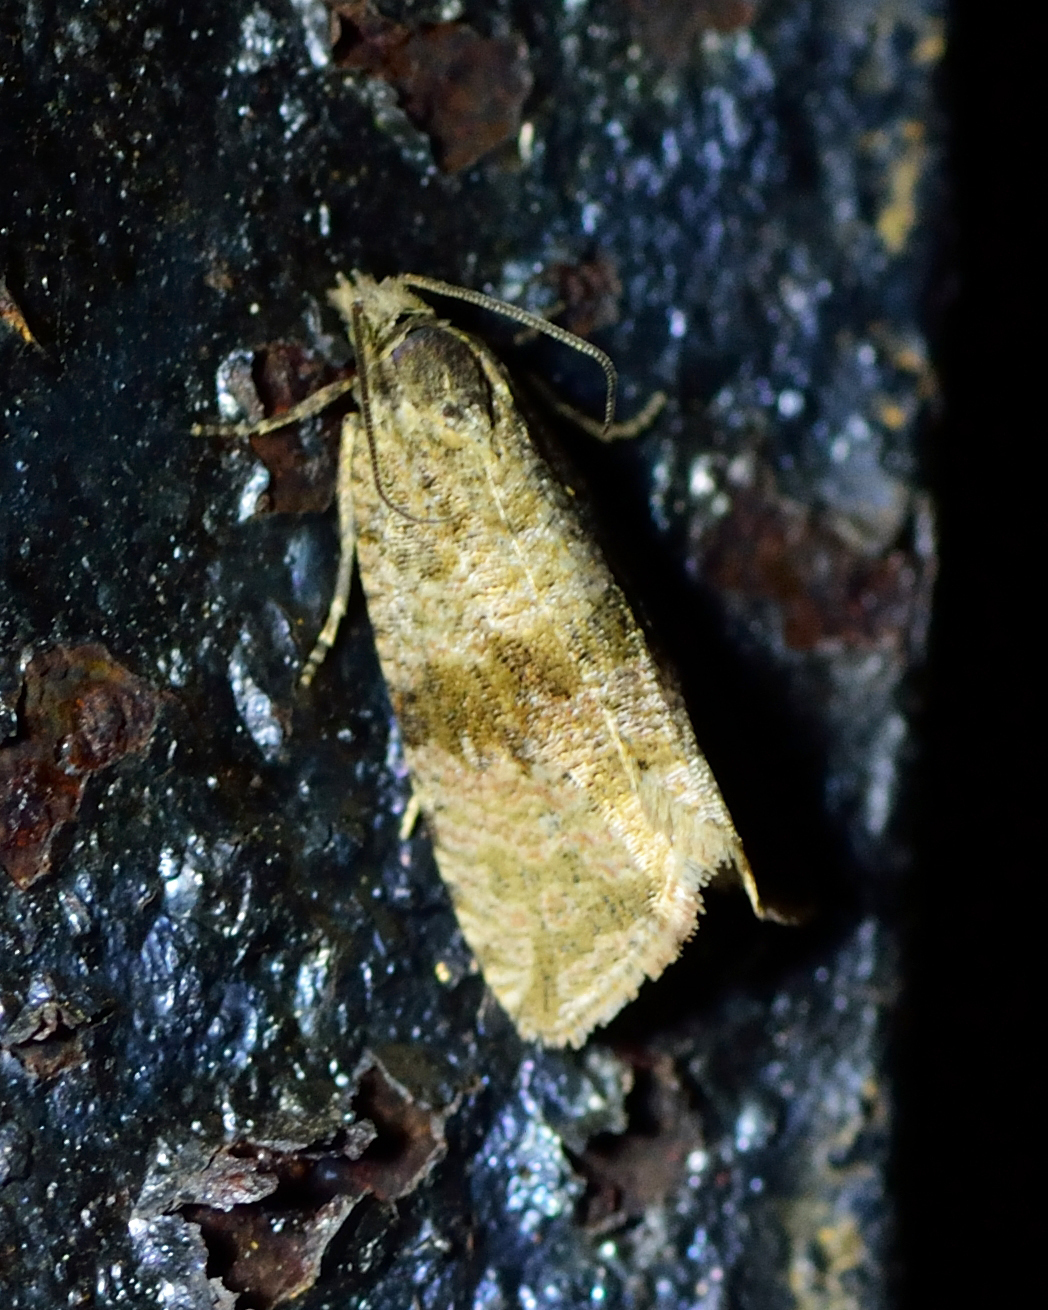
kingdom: Animalia
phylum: Arthropoda
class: Insecta
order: Lepidoptera
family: Tortricidae
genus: Celypha
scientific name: Celypha striana
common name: Barred marble
